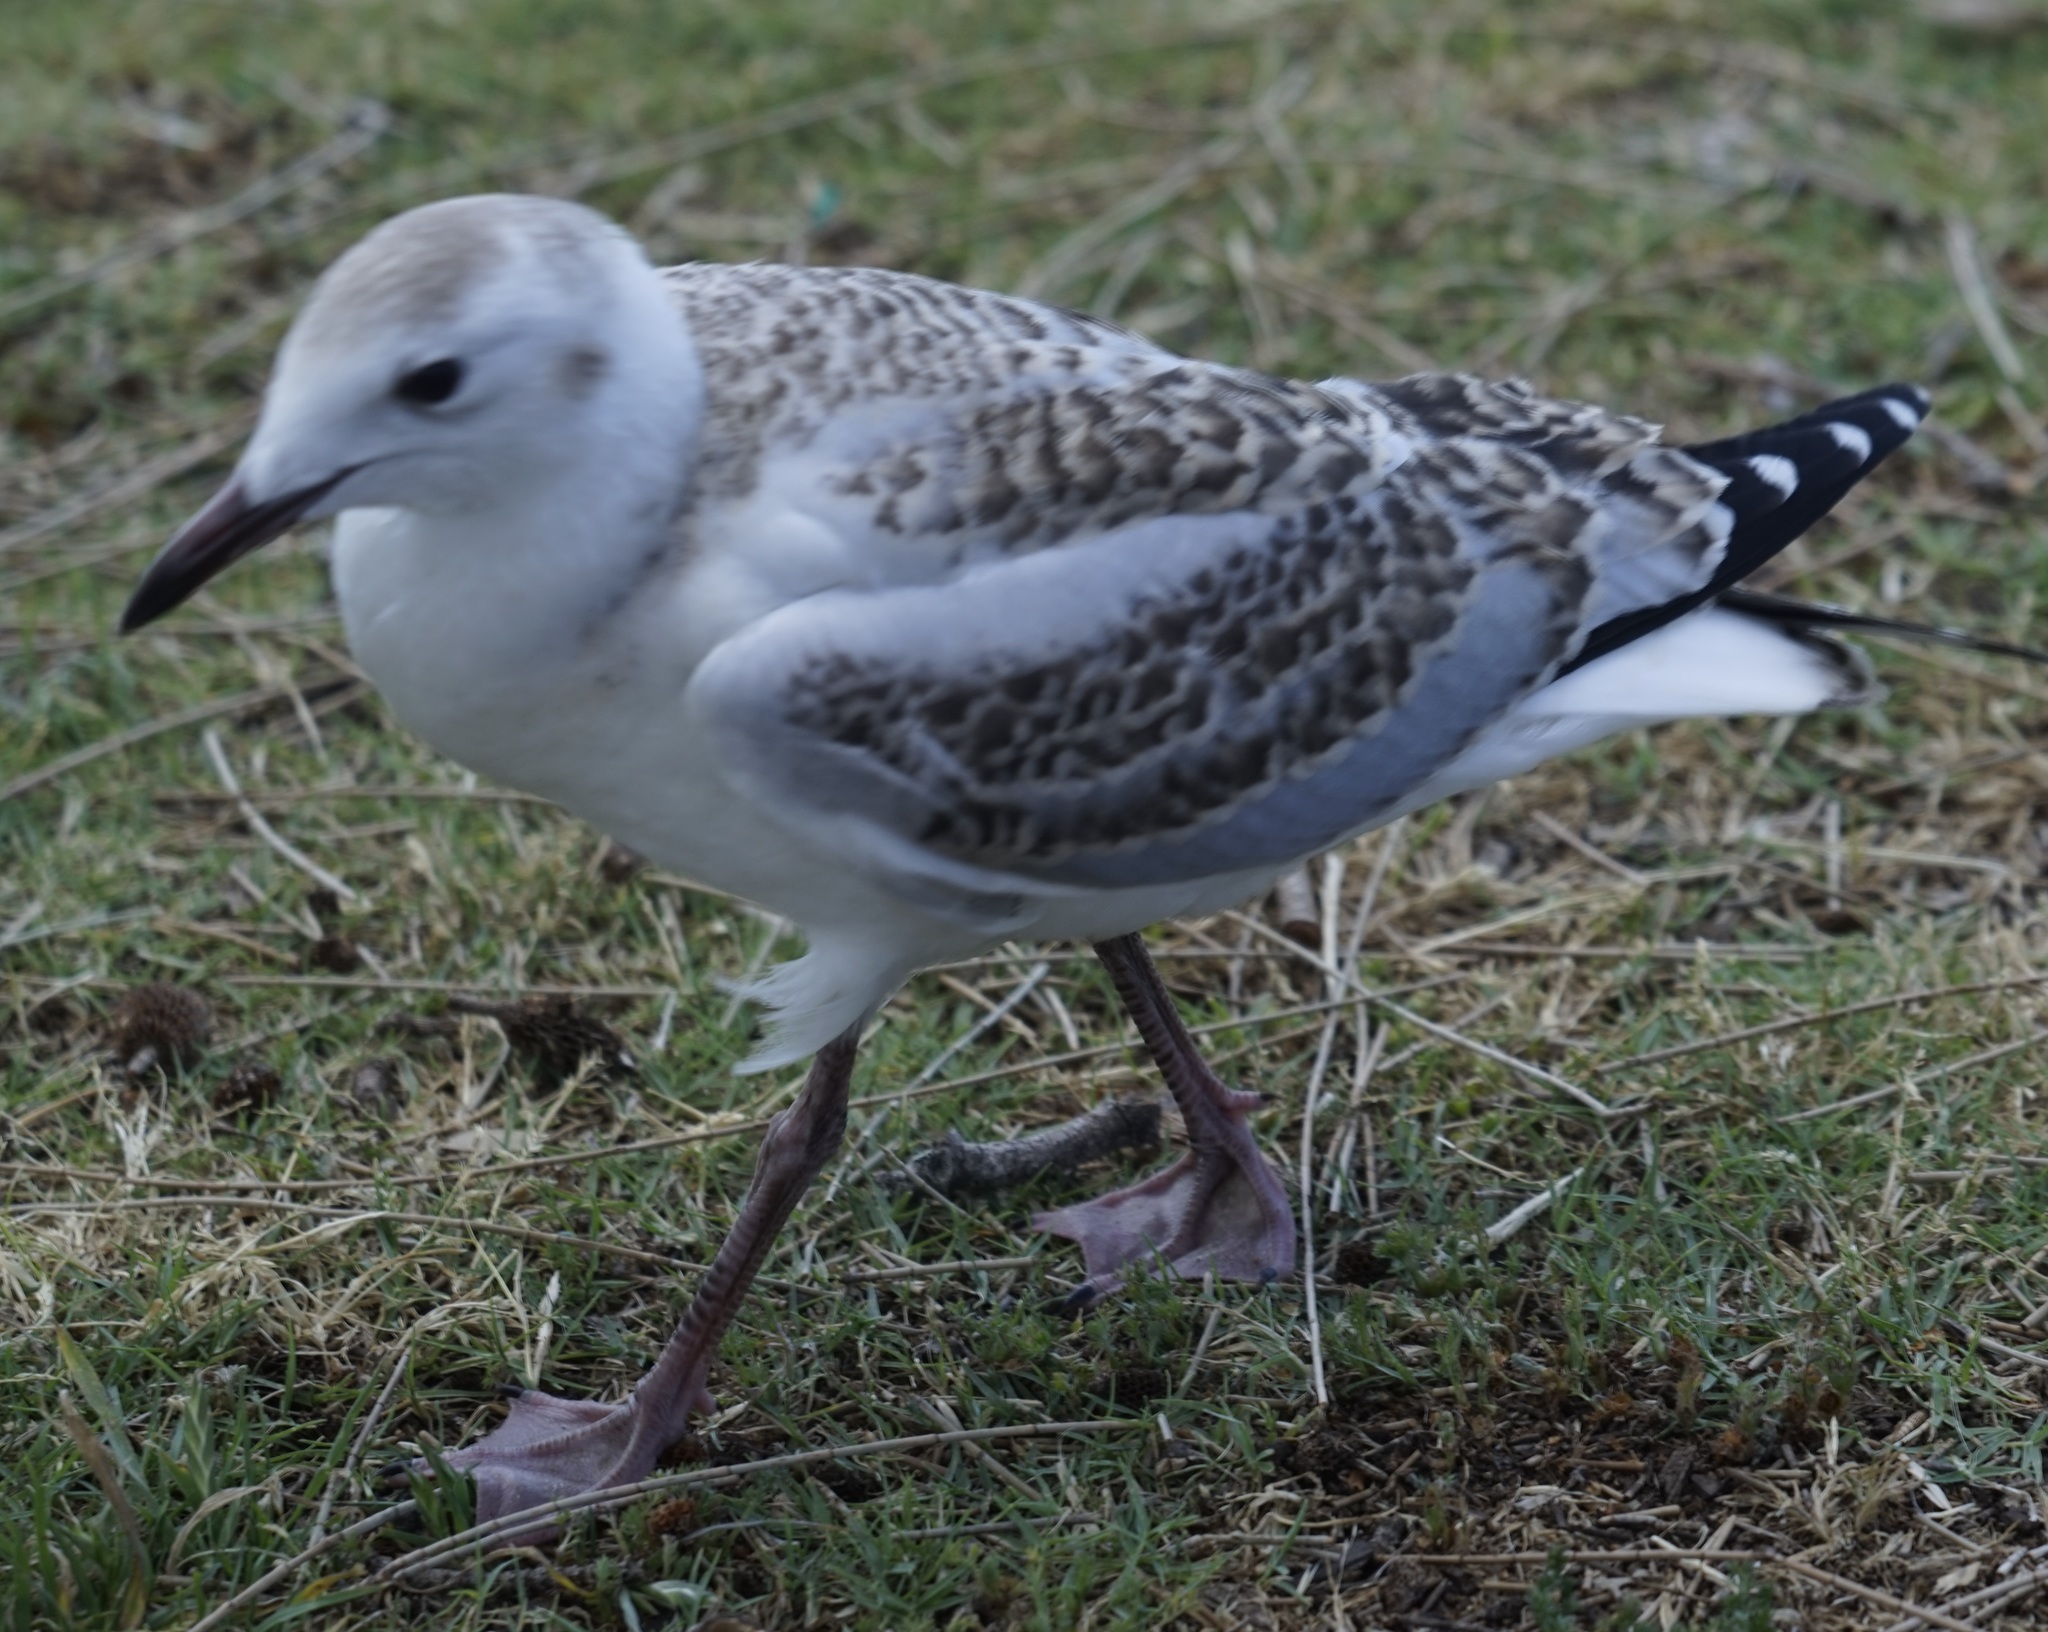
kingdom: Animalia
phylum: Chordata
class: Aves
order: Charadriiformes
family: Laridae
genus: Chroicocephalus
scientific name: Chroicocephalus novaehollandiae
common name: Silver gull
